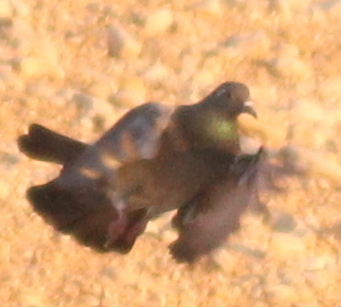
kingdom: Animalia
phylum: Chordata
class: Aves
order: Columbiformes
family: Columbidae
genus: Columba
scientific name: Columba livia
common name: Rock pigeon
